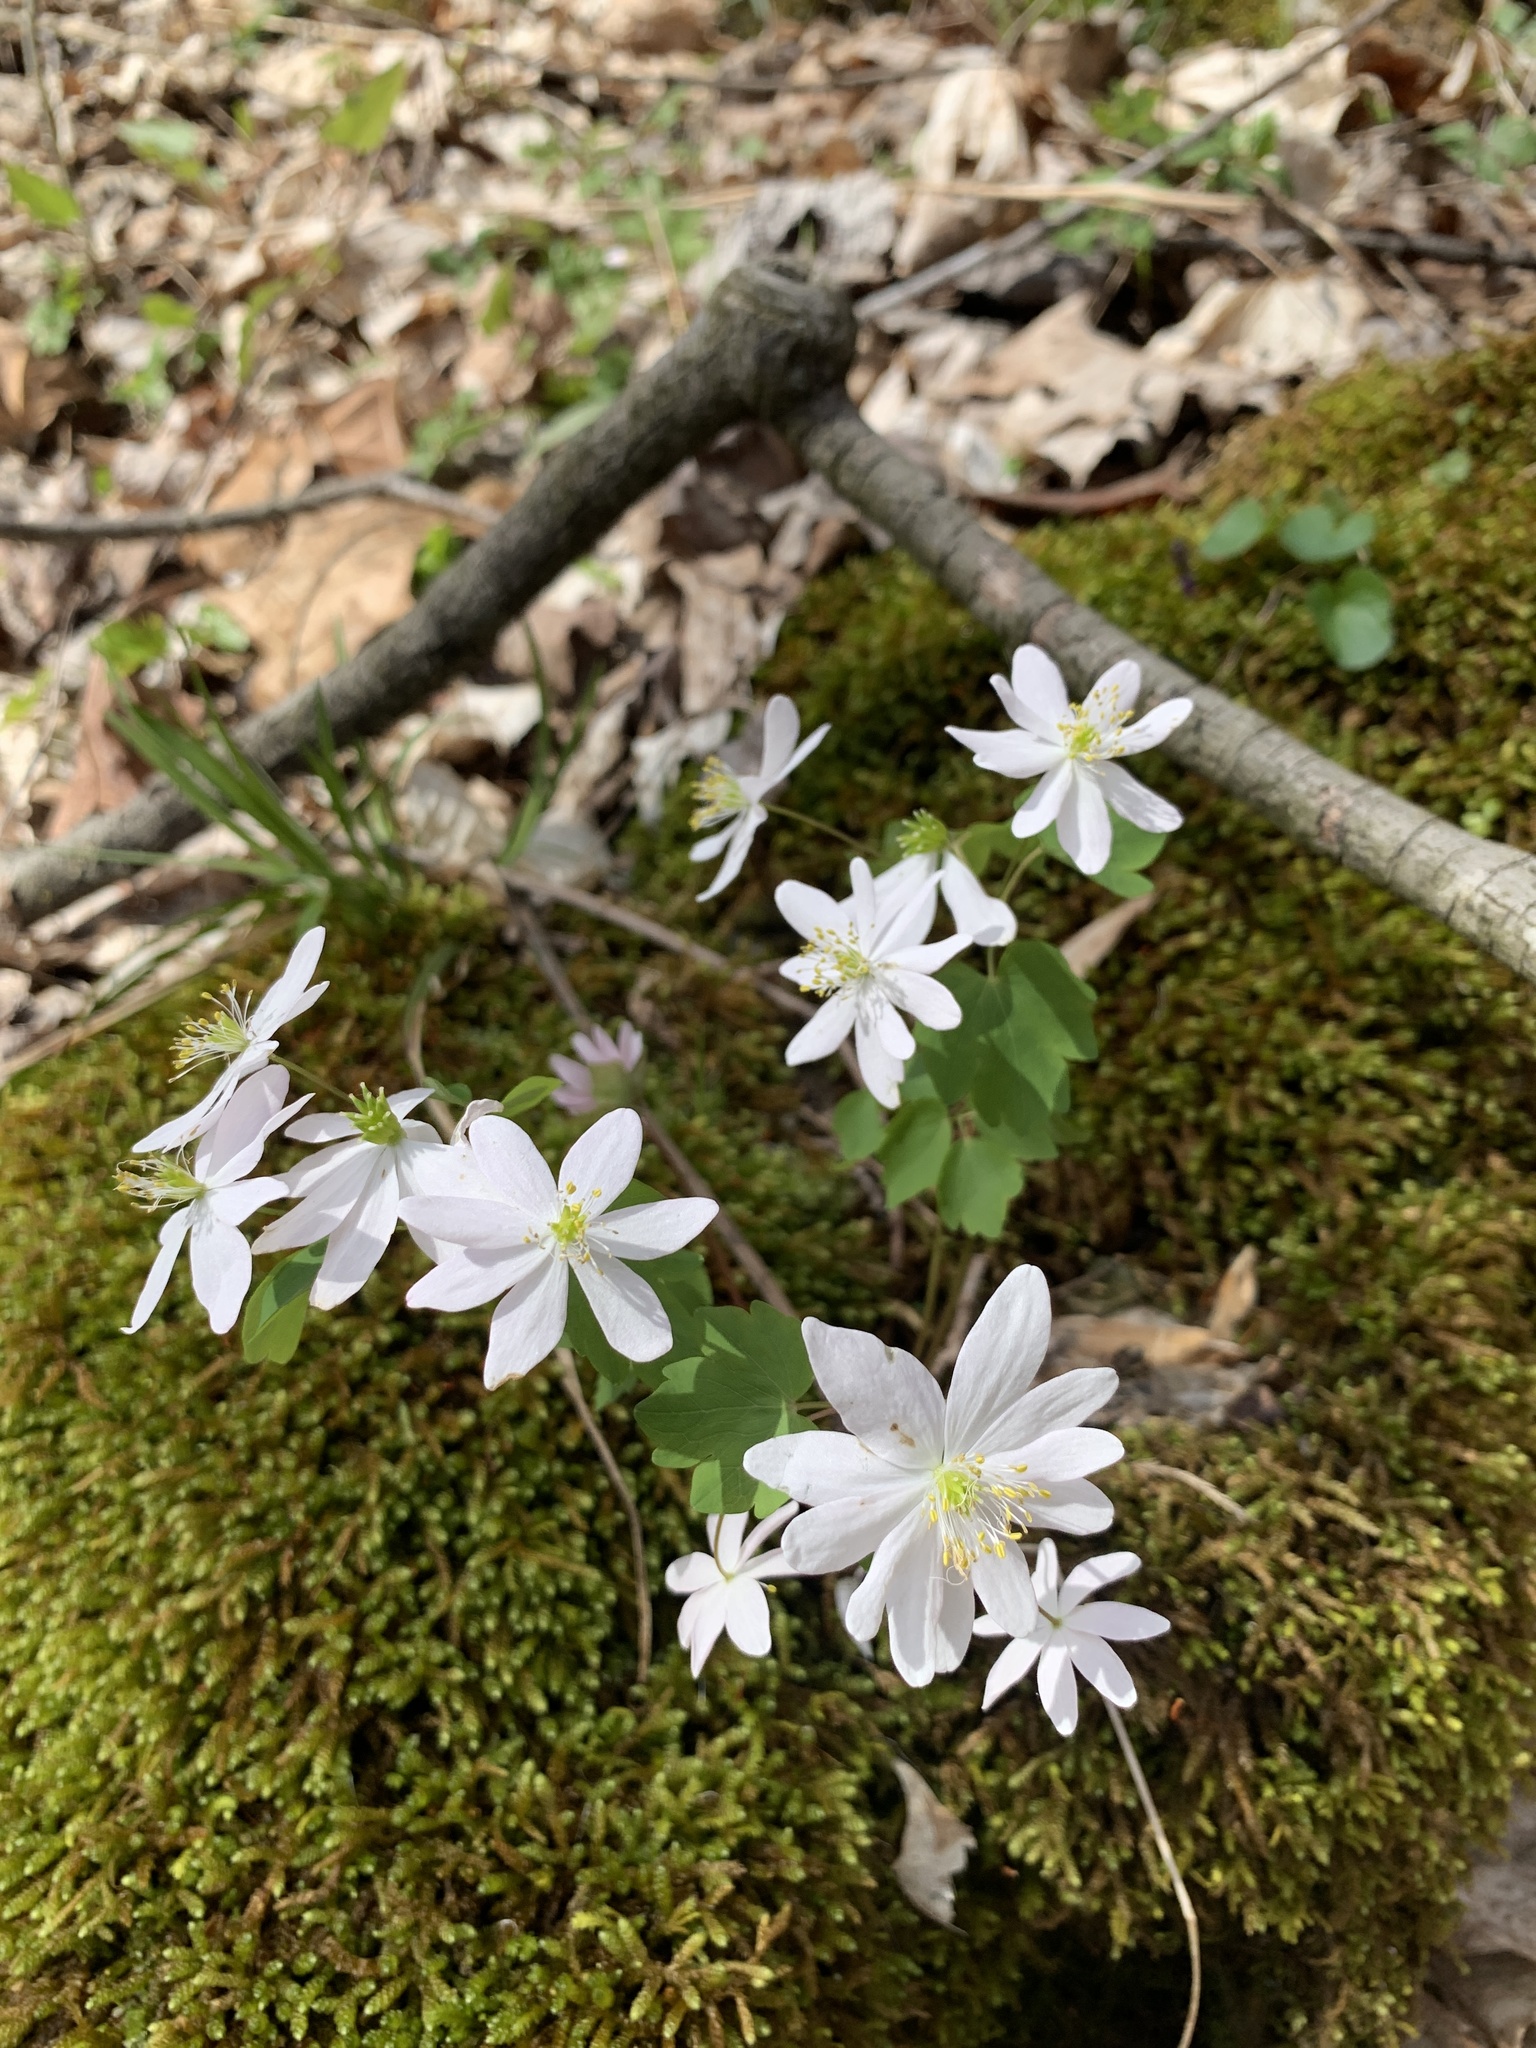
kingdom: Plantae
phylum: Tracheophyta
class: Magnoliopsida
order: Ranunculales
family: Ranunculaceae
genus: Thalictrum
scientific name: Thalictrum thalictroides
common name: Rue-anemone
